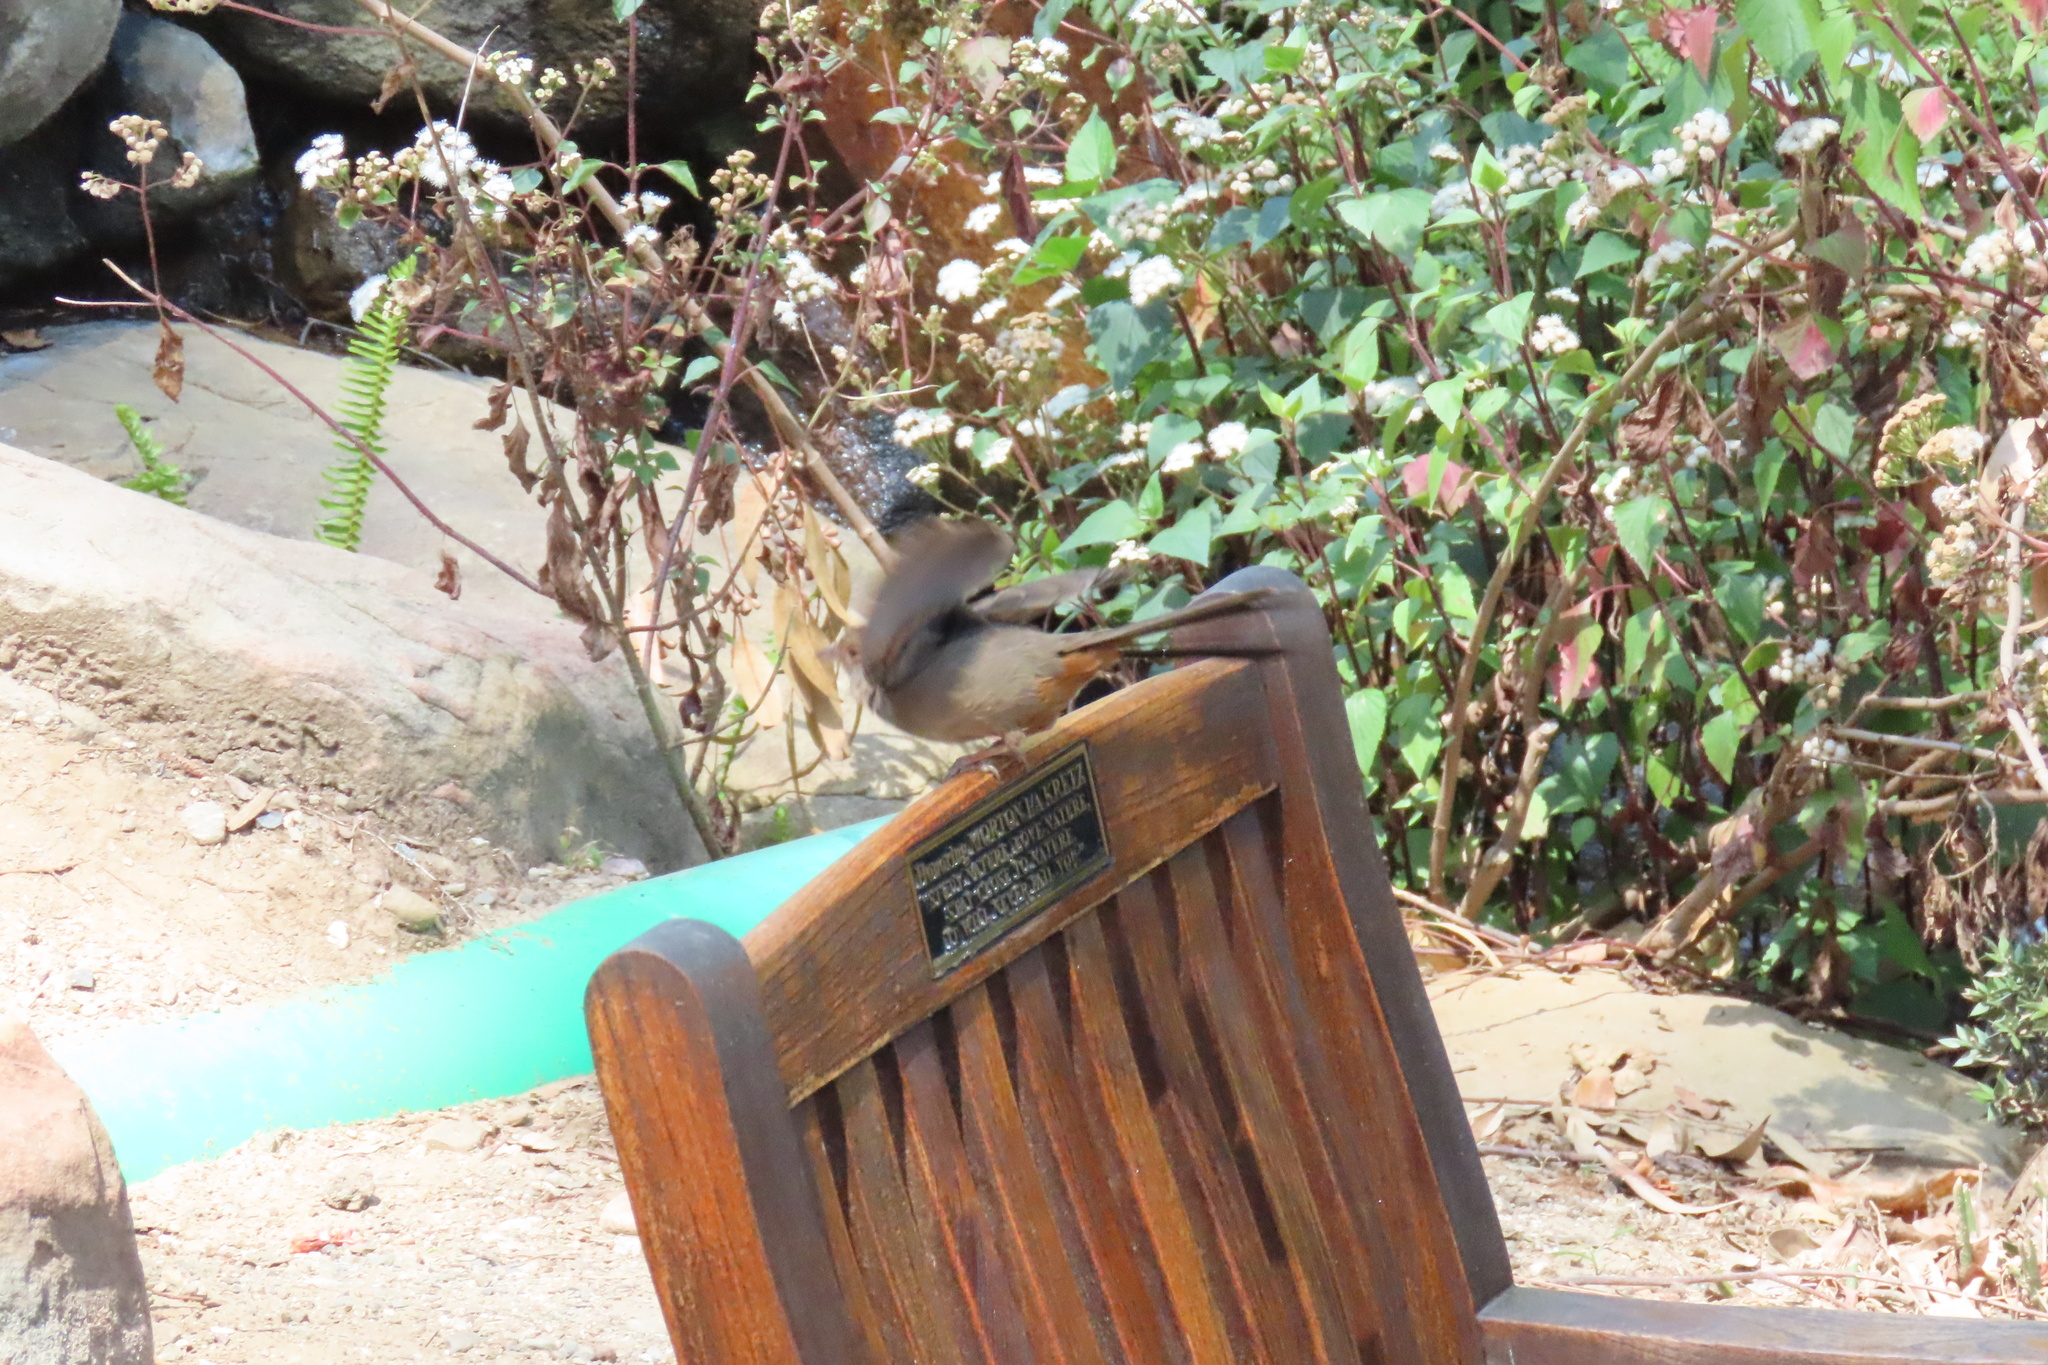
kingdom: Animalia
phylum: Chordata
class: Aves
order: Passeriformes
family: Passerellidae
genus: Melozone
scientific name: Melozone crissalis
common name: California towhee
